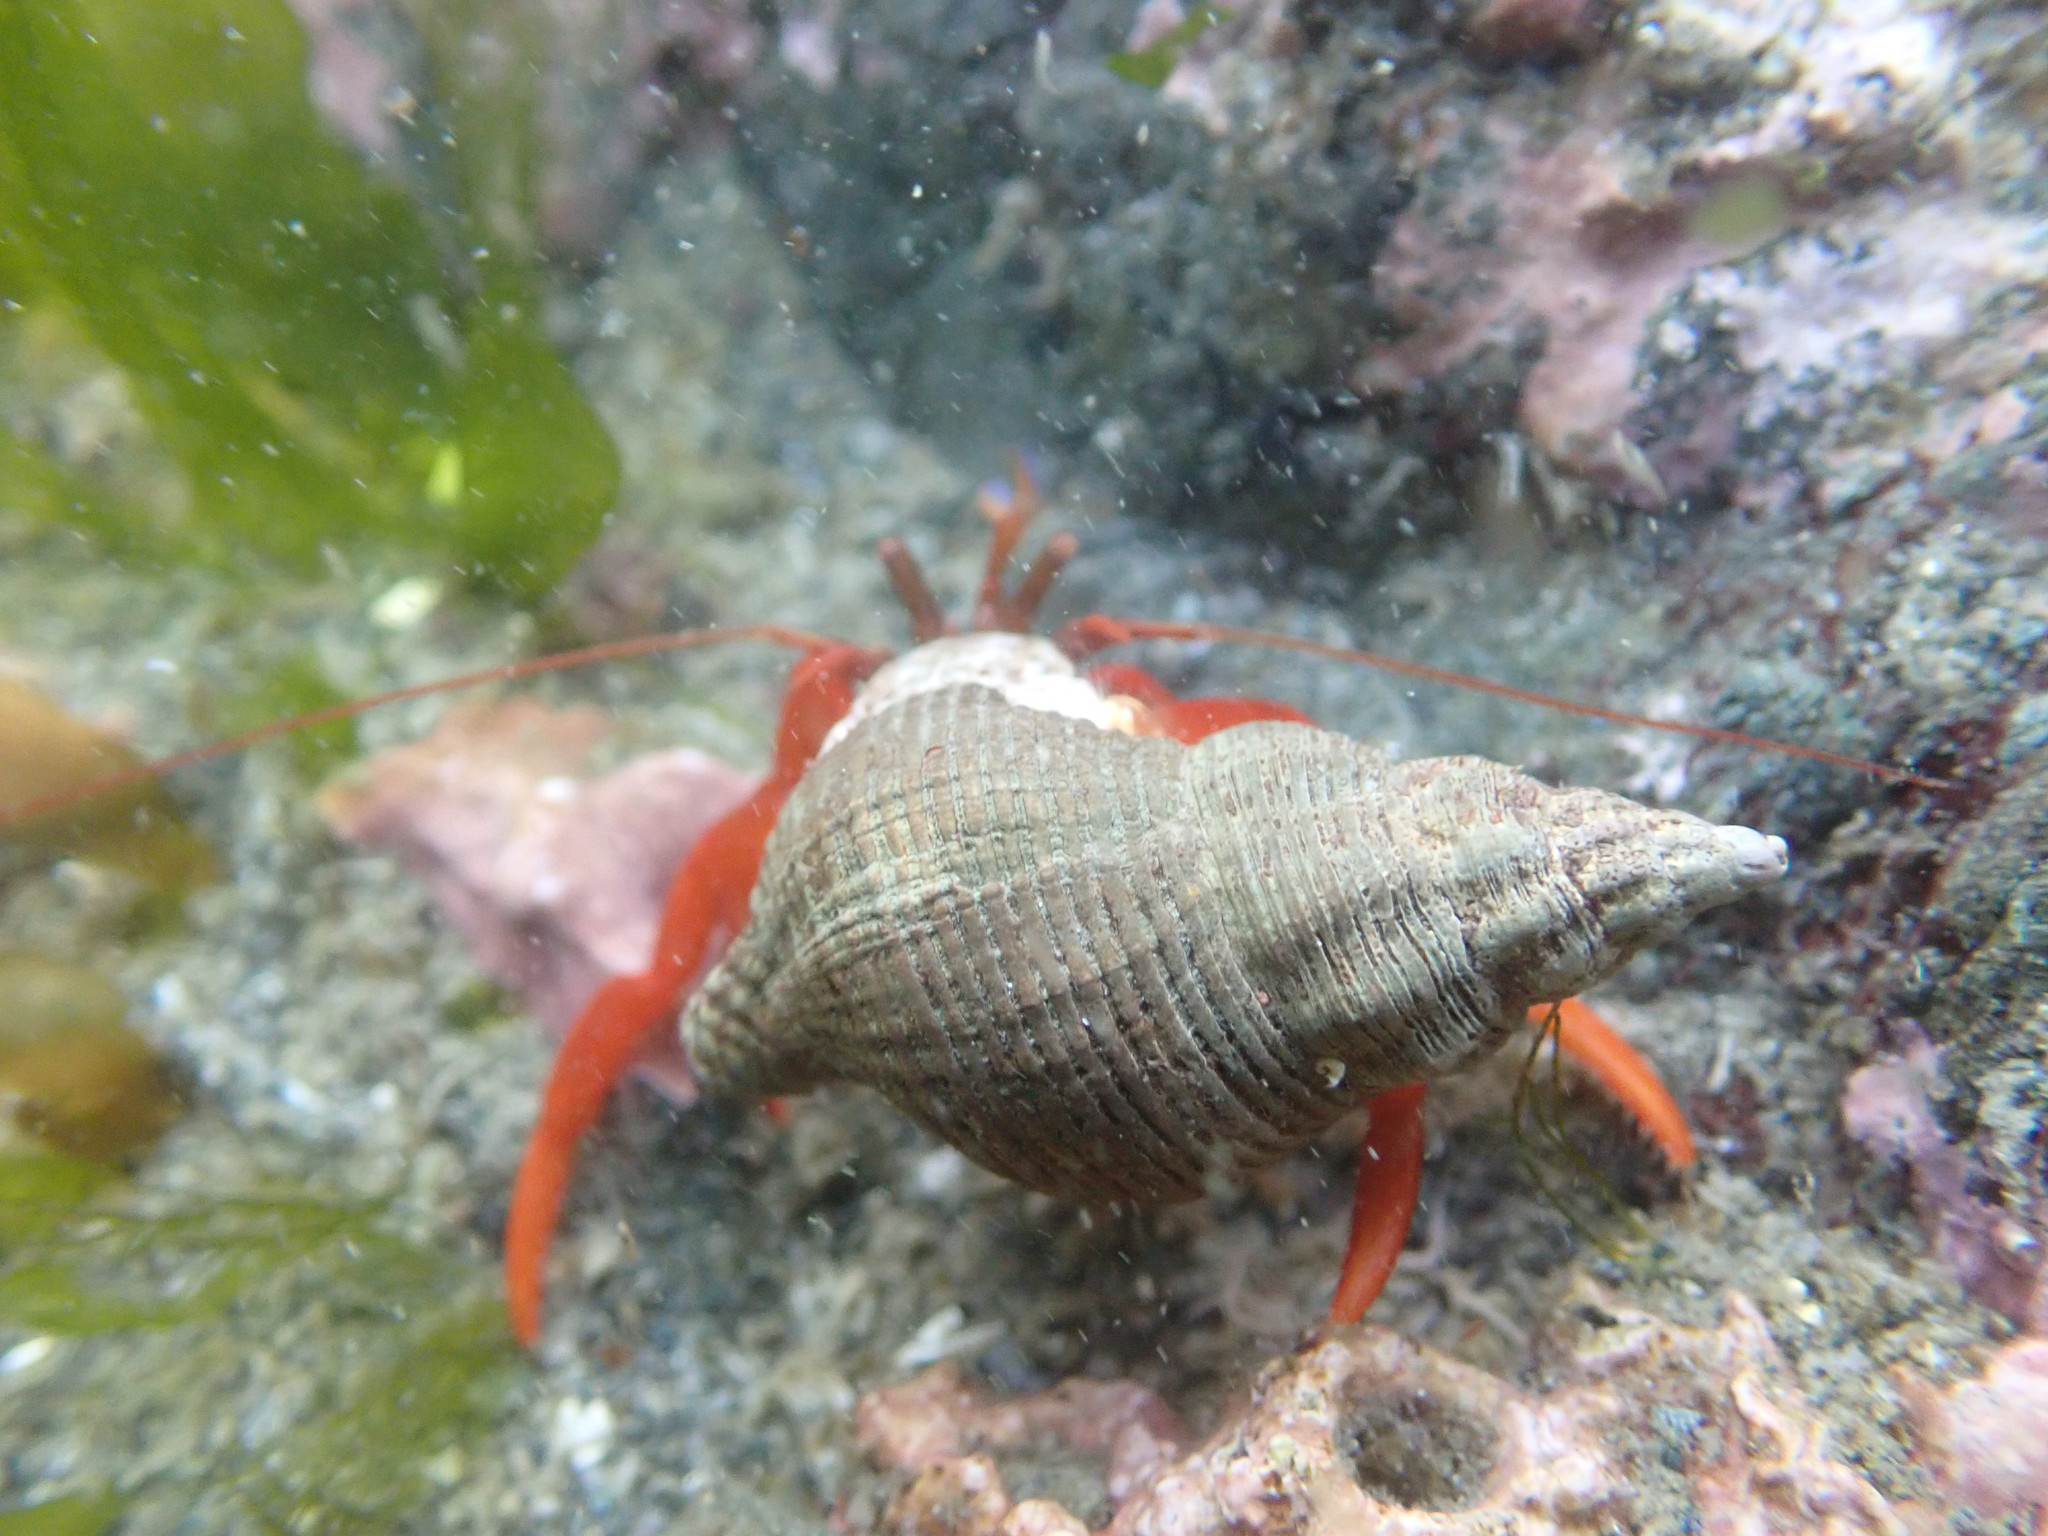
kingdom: Animalia
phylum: Arthropoda
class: Malacostraca
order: Decapoda
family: Paguridae
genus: Elassochirus
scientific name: Elassochirus gilli
